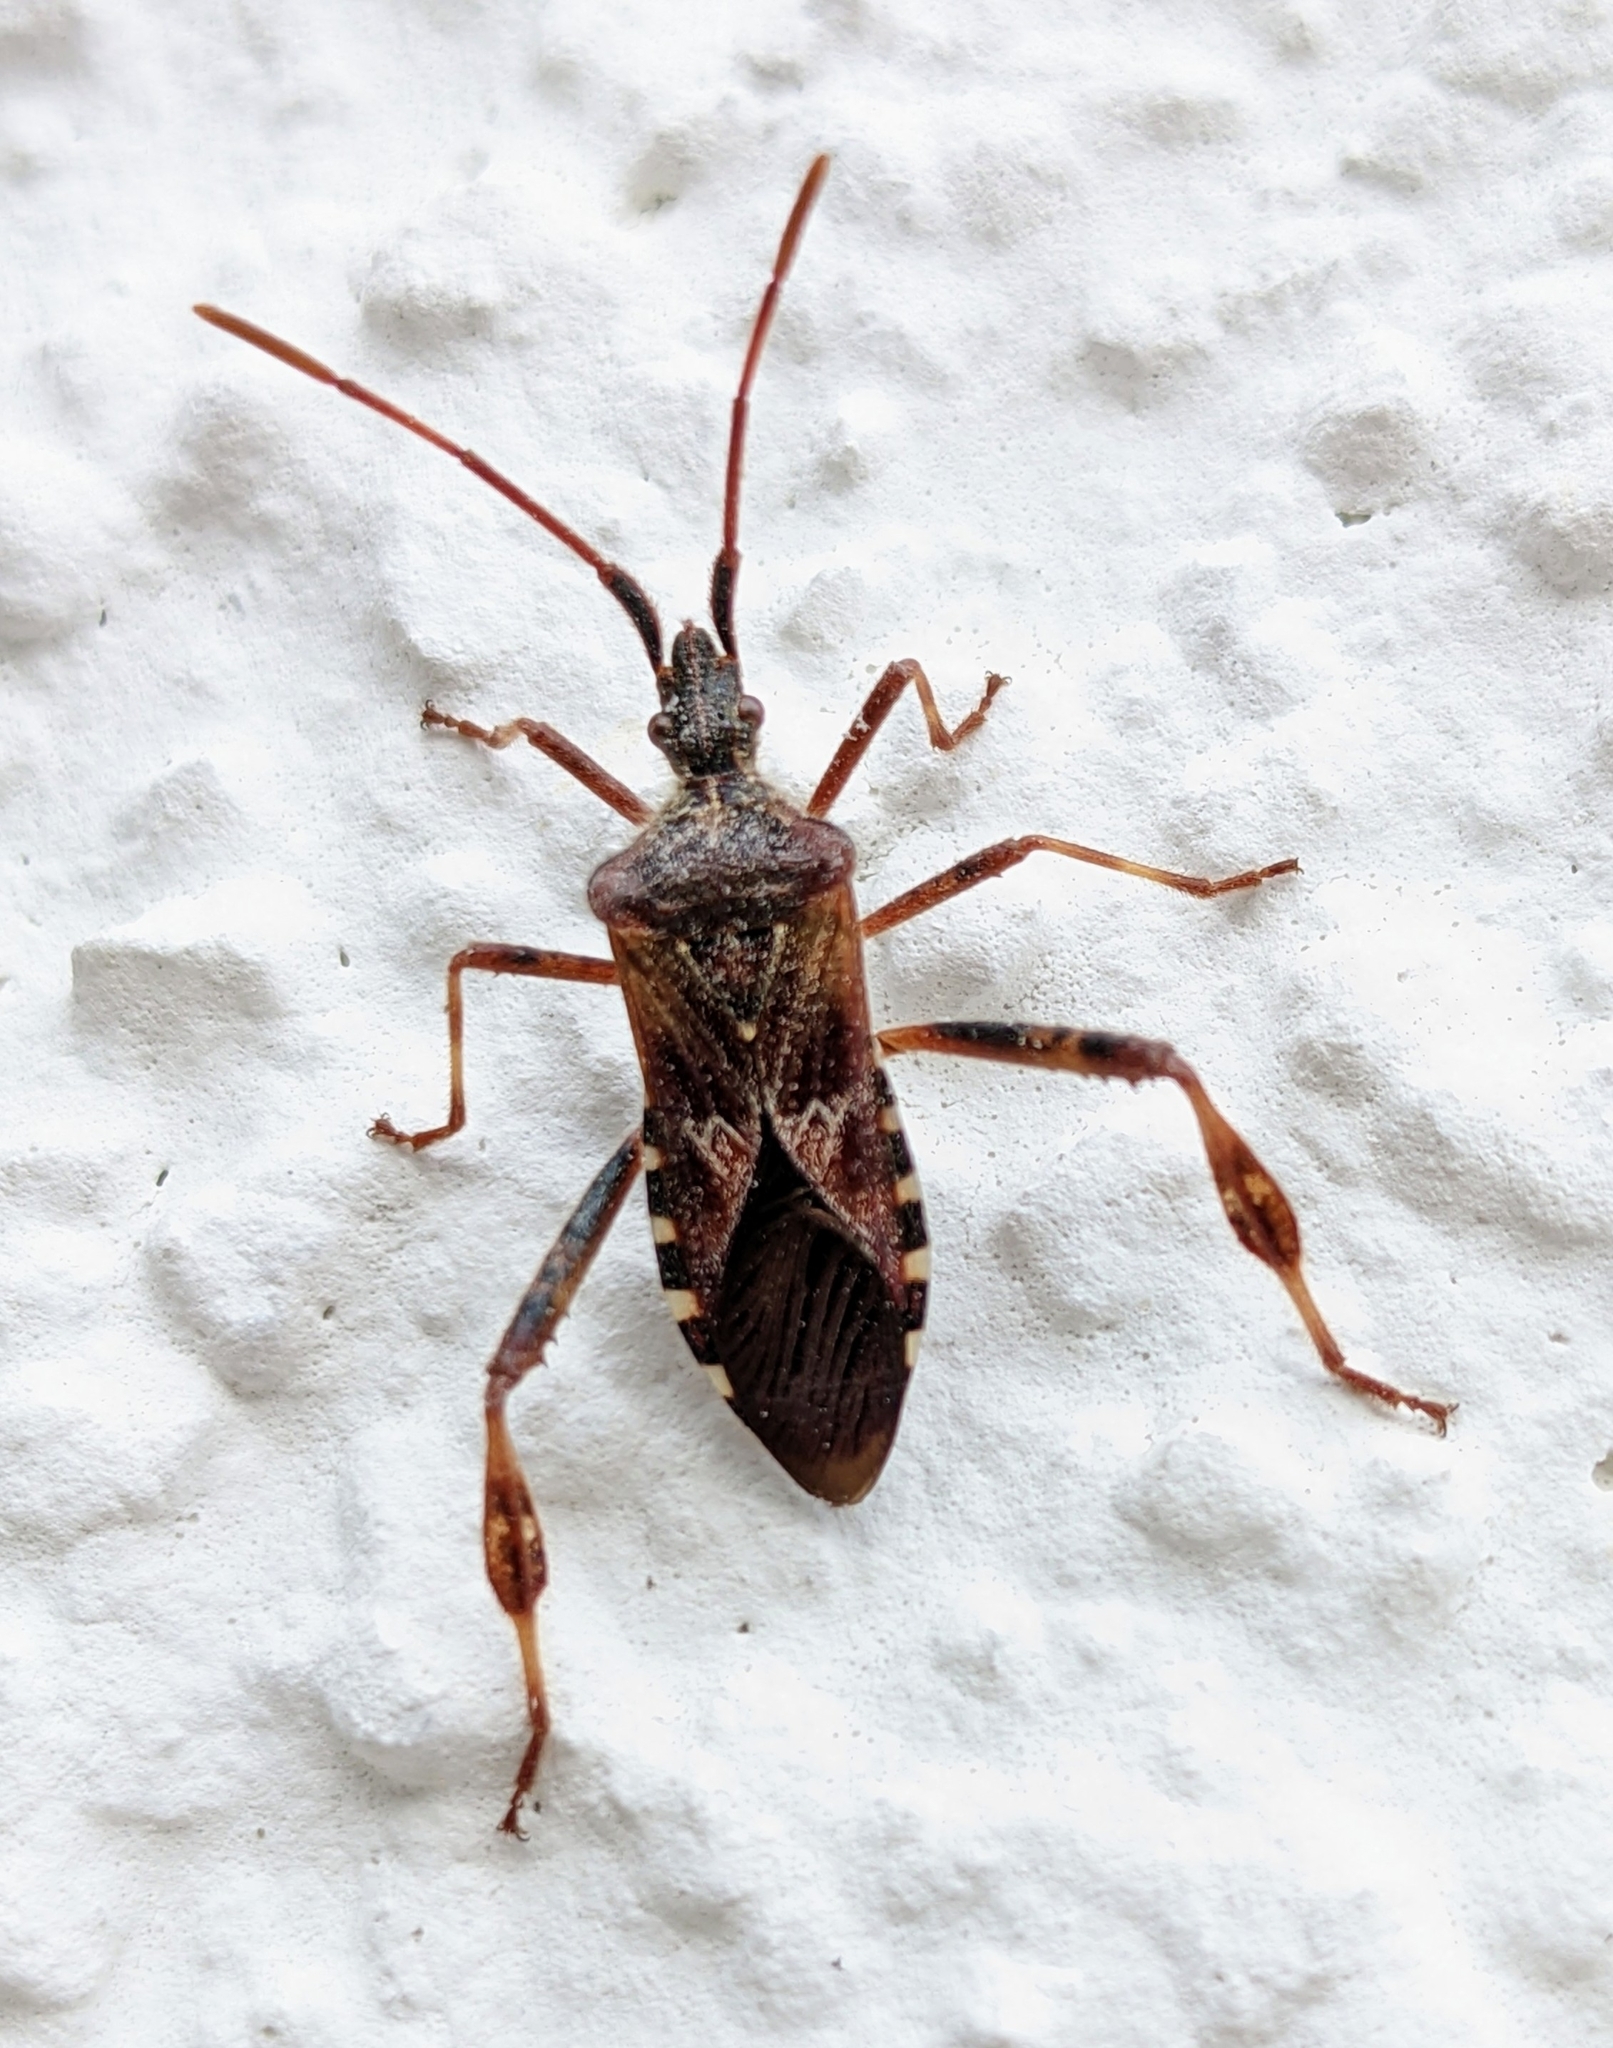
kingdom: Animalia
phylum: Arthropoda
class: Insecta
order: Hemiptera
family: Coreidae
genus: Leptoglossus
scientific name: Leptoglossus occidentalis
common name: Western conifer-seed bug
